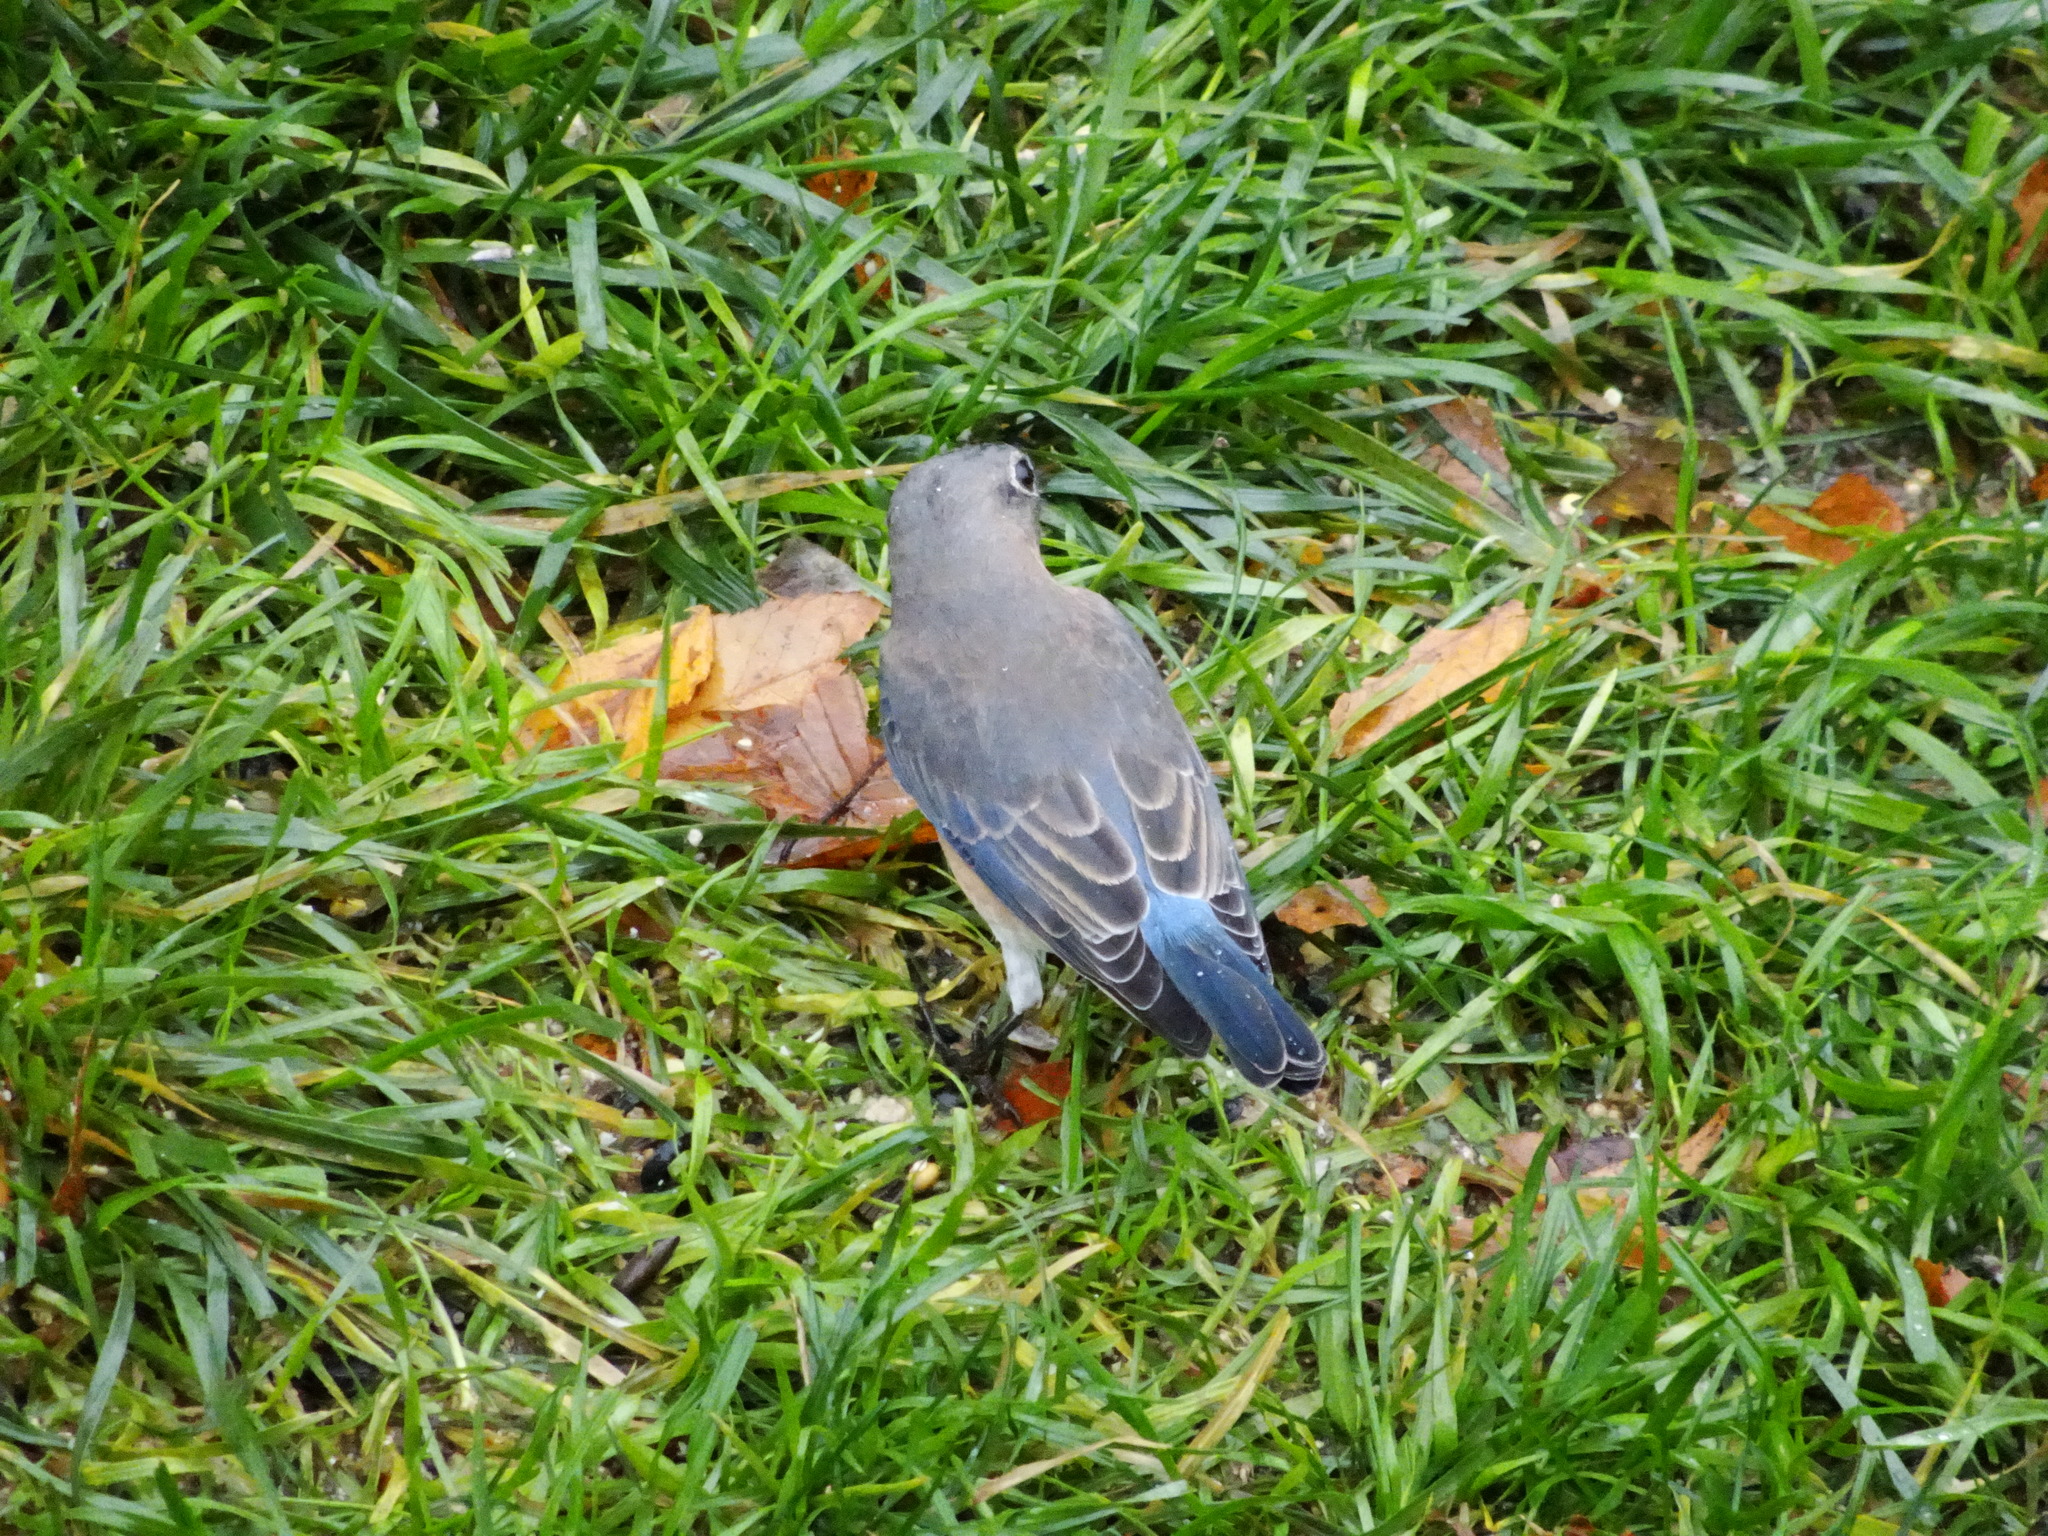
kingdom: Animalia
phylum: Chordata
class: Aves
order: Passeriformes
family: Turdidae
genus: Sialia
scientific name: Sialia sialis
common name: Eastern bluebird
